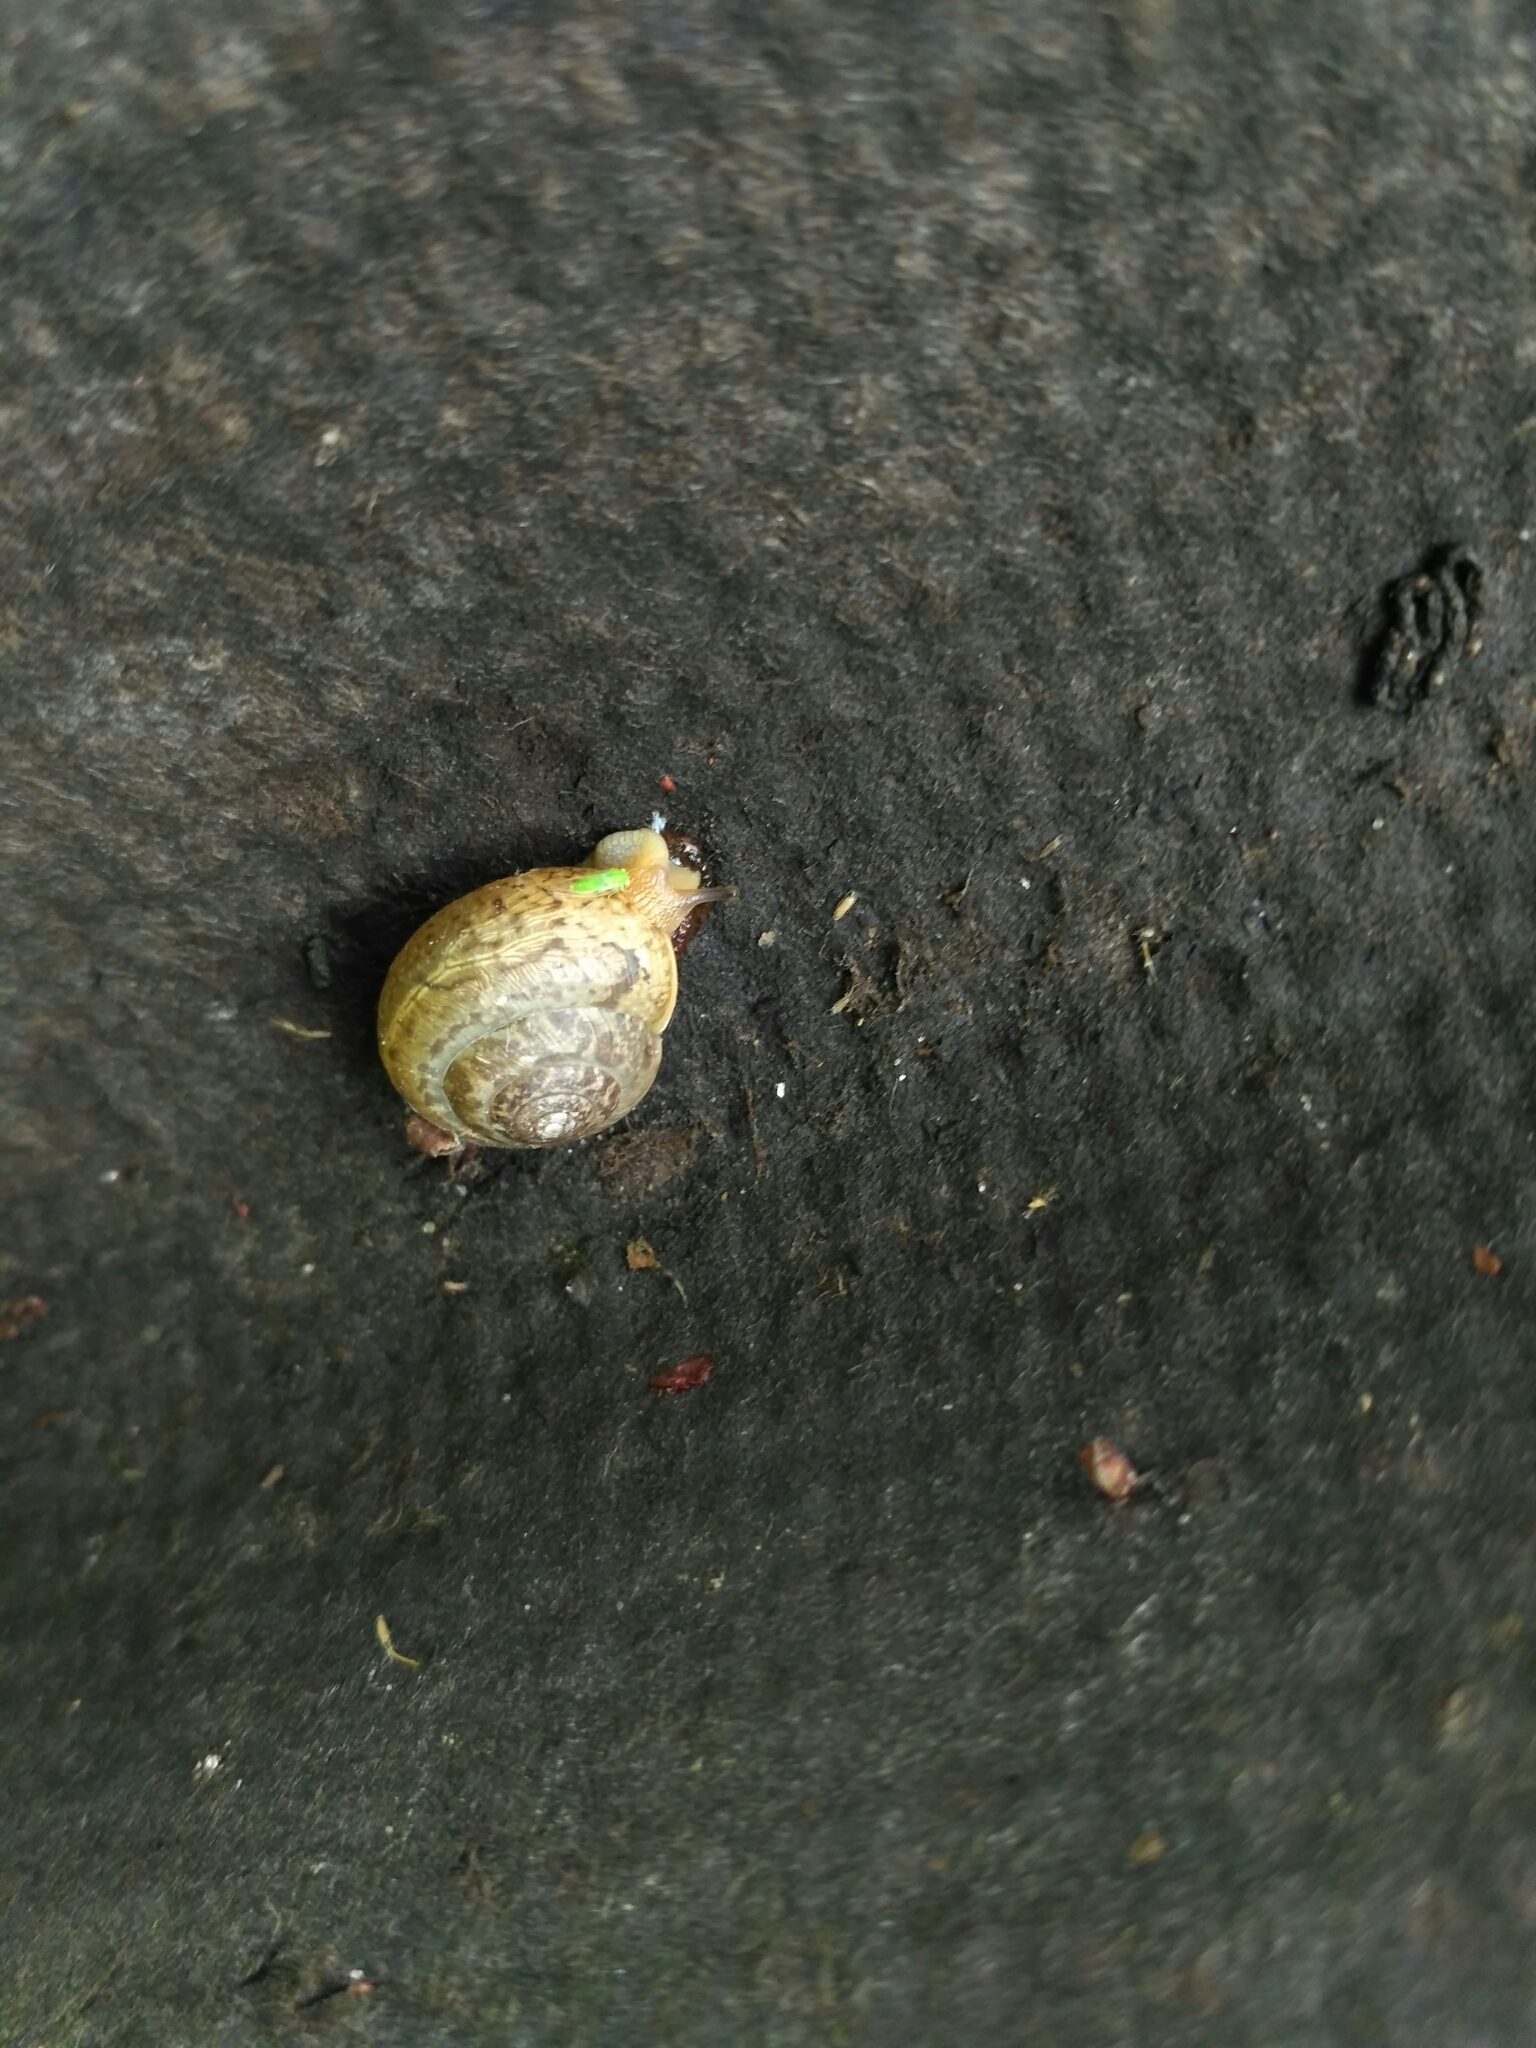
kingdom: Animalia
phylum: Mollusca
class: Gastropoda
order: Stylommatophora
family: Hygromiidae
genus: Monacha
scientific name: Monacha fruticola
